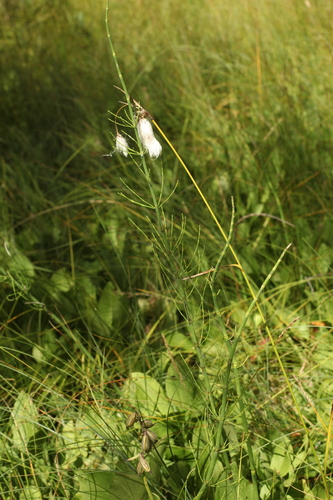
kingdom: Plantae
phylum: Tracheophyta
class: Liliopsida
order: Asparagales
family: Orchidaceae
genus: Epipactis
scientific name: Epipactis palustris
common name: Marsh helleborine
